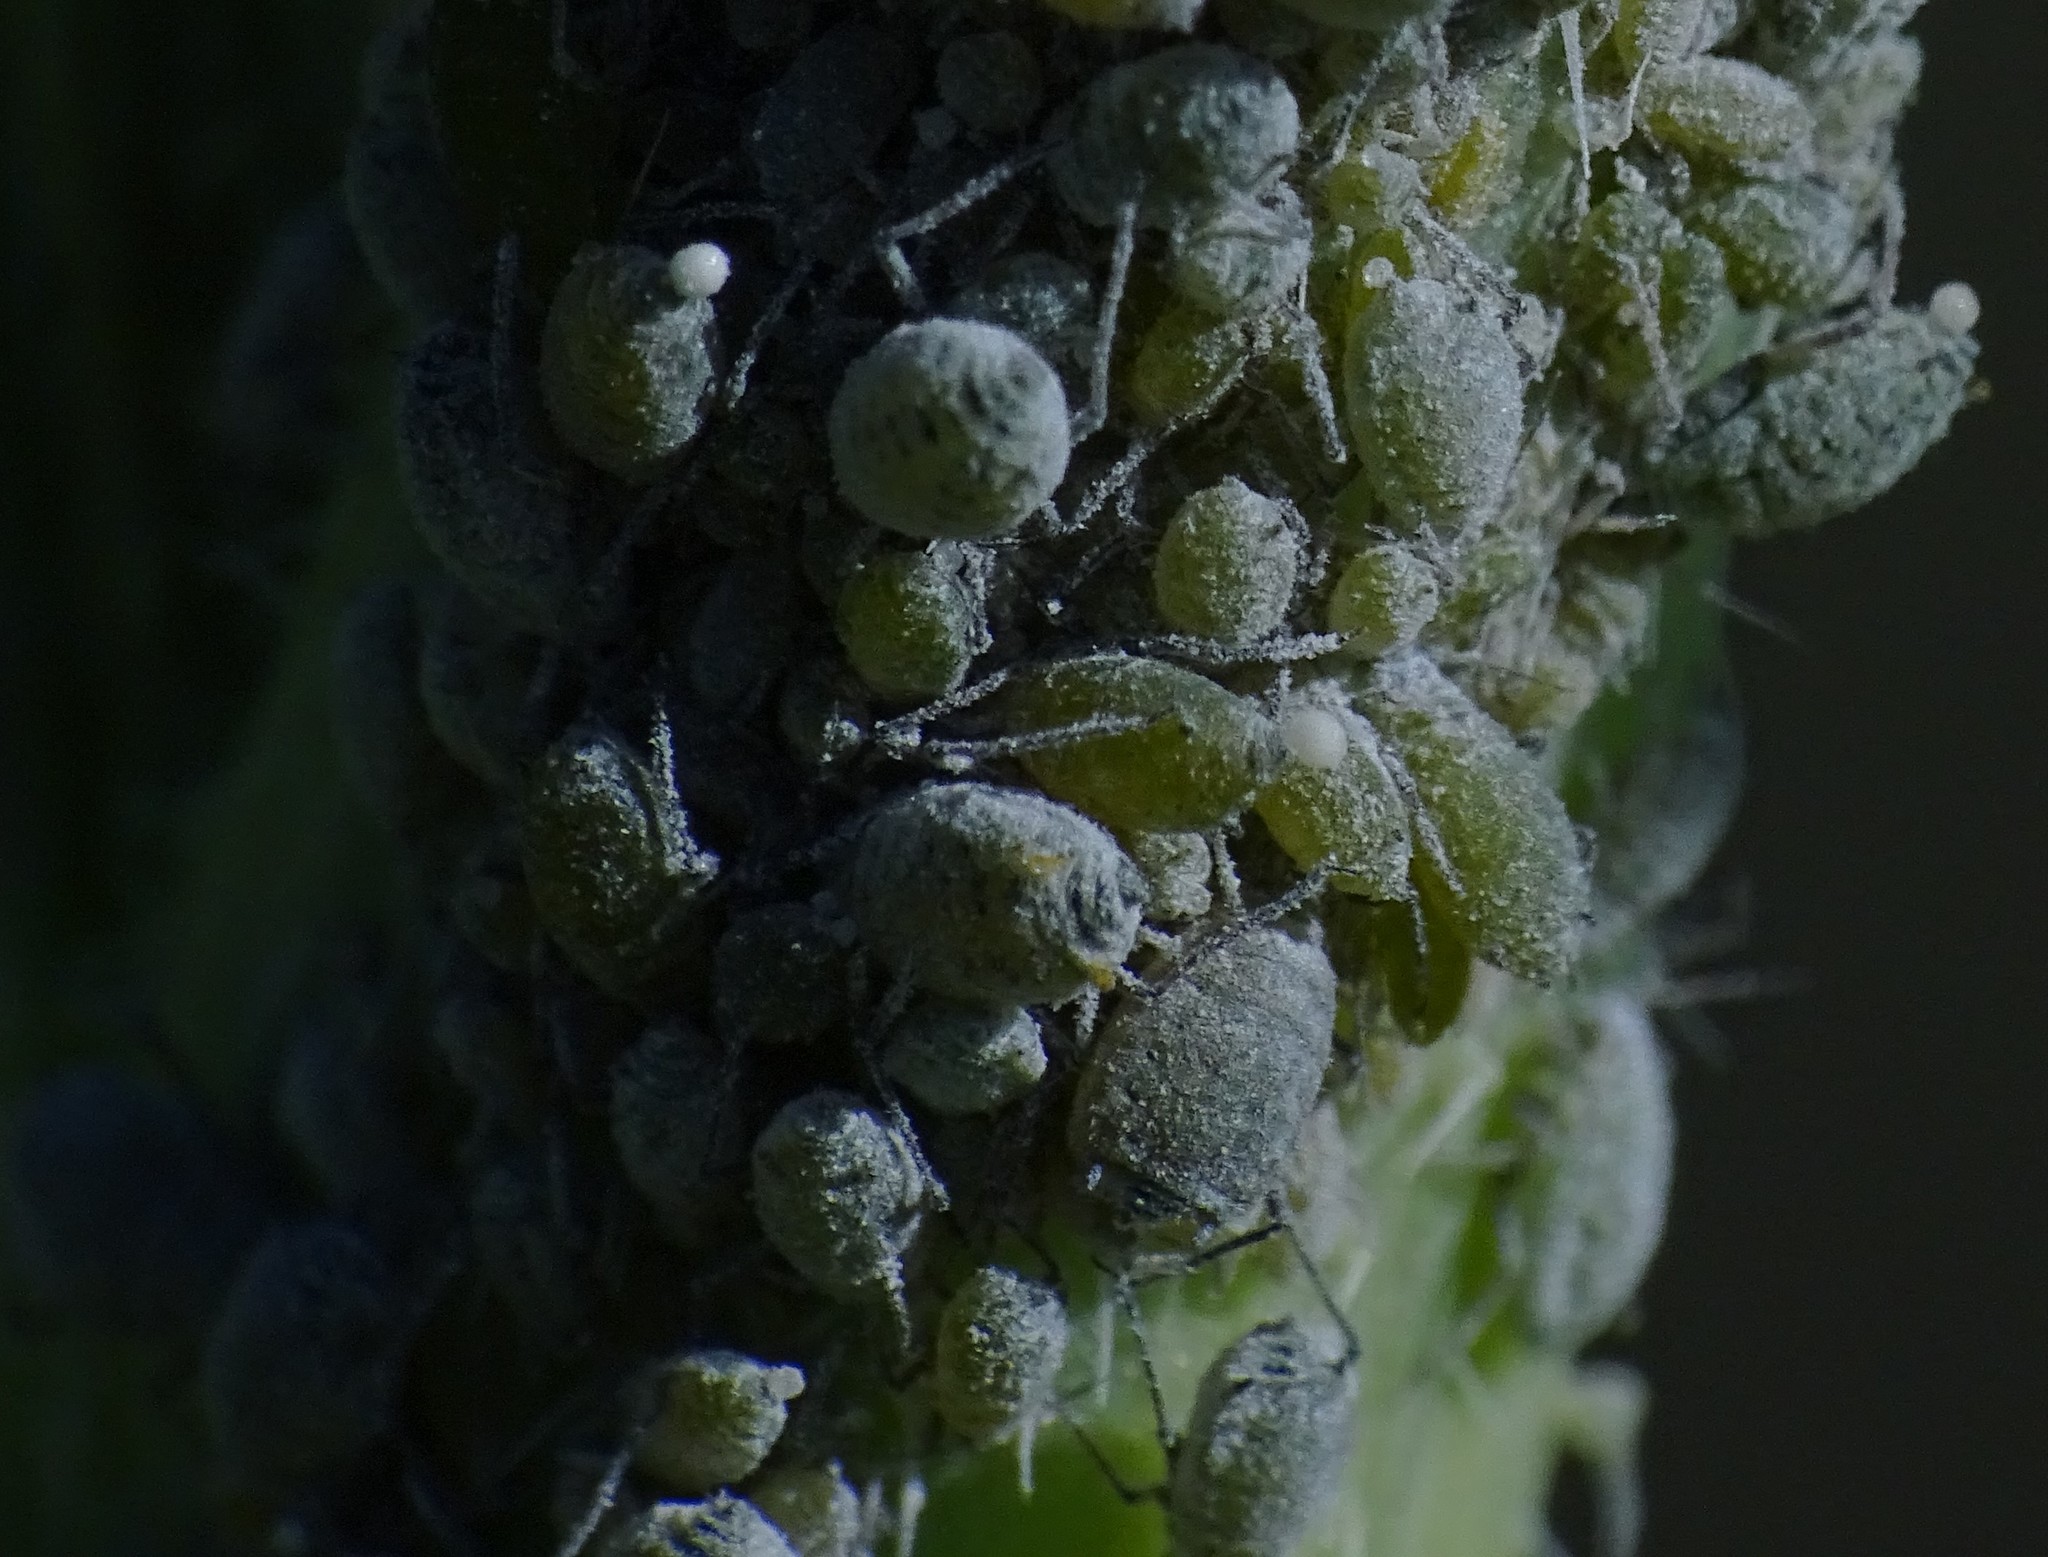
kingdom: Animalia
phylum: Arthropoda
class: Insecta
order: Hemiptera
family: Aphididae
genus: Brevicoryne
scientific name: Brevicoryne brassicae
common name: Cabbage aphid
